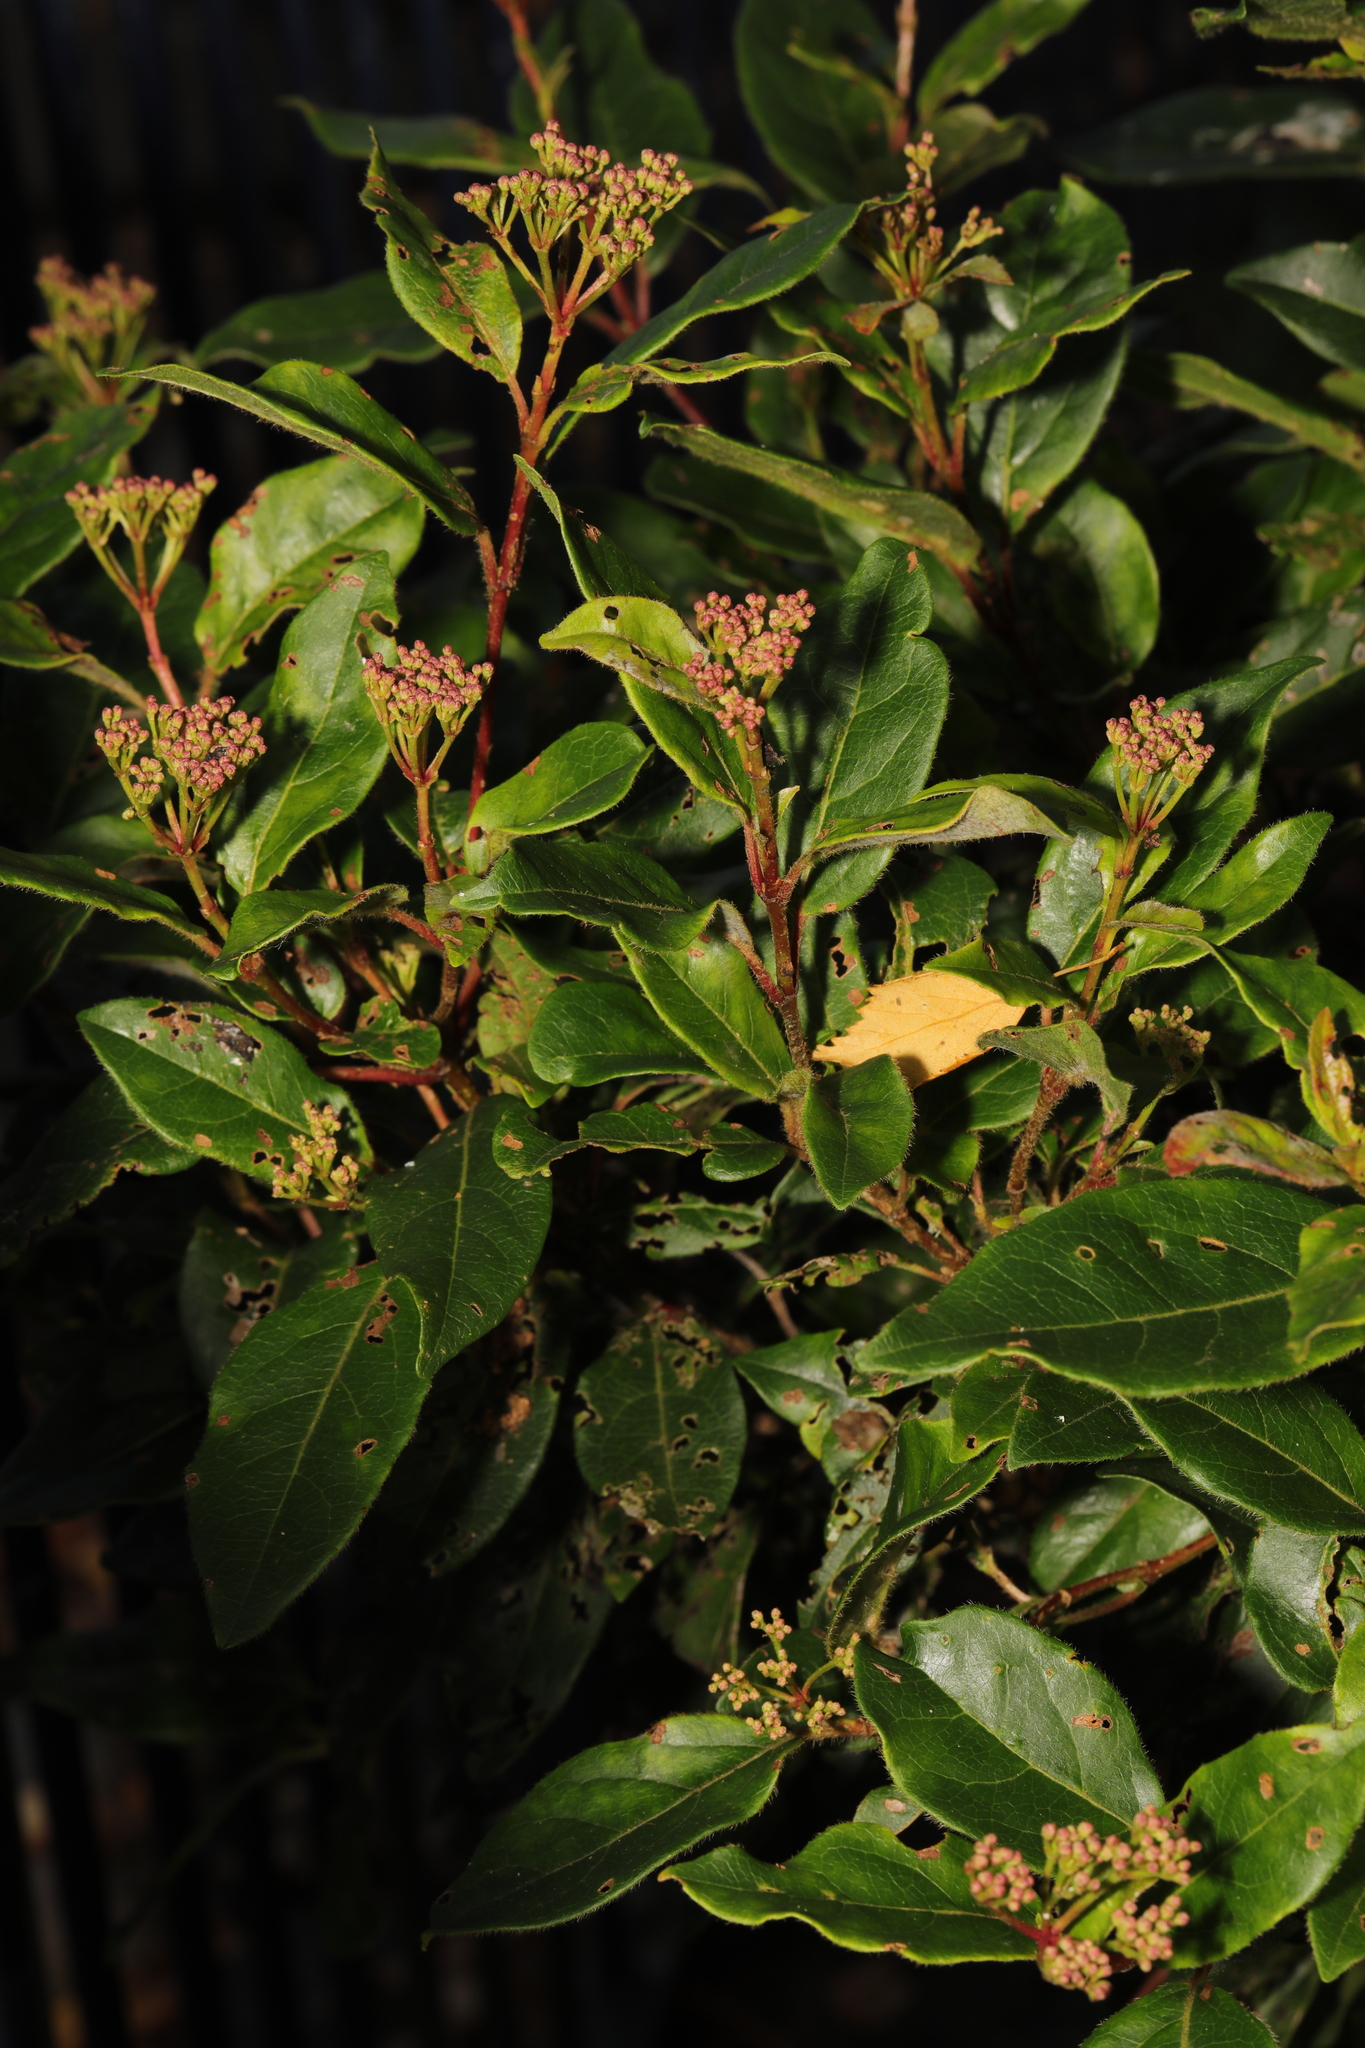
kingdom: Plantae
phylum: Tracheophyta
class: Magnoliopsida
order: Dipsacales
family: Viburnaceae
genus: Viburnum
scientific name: Viburnum tinus
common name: Laurustinus
